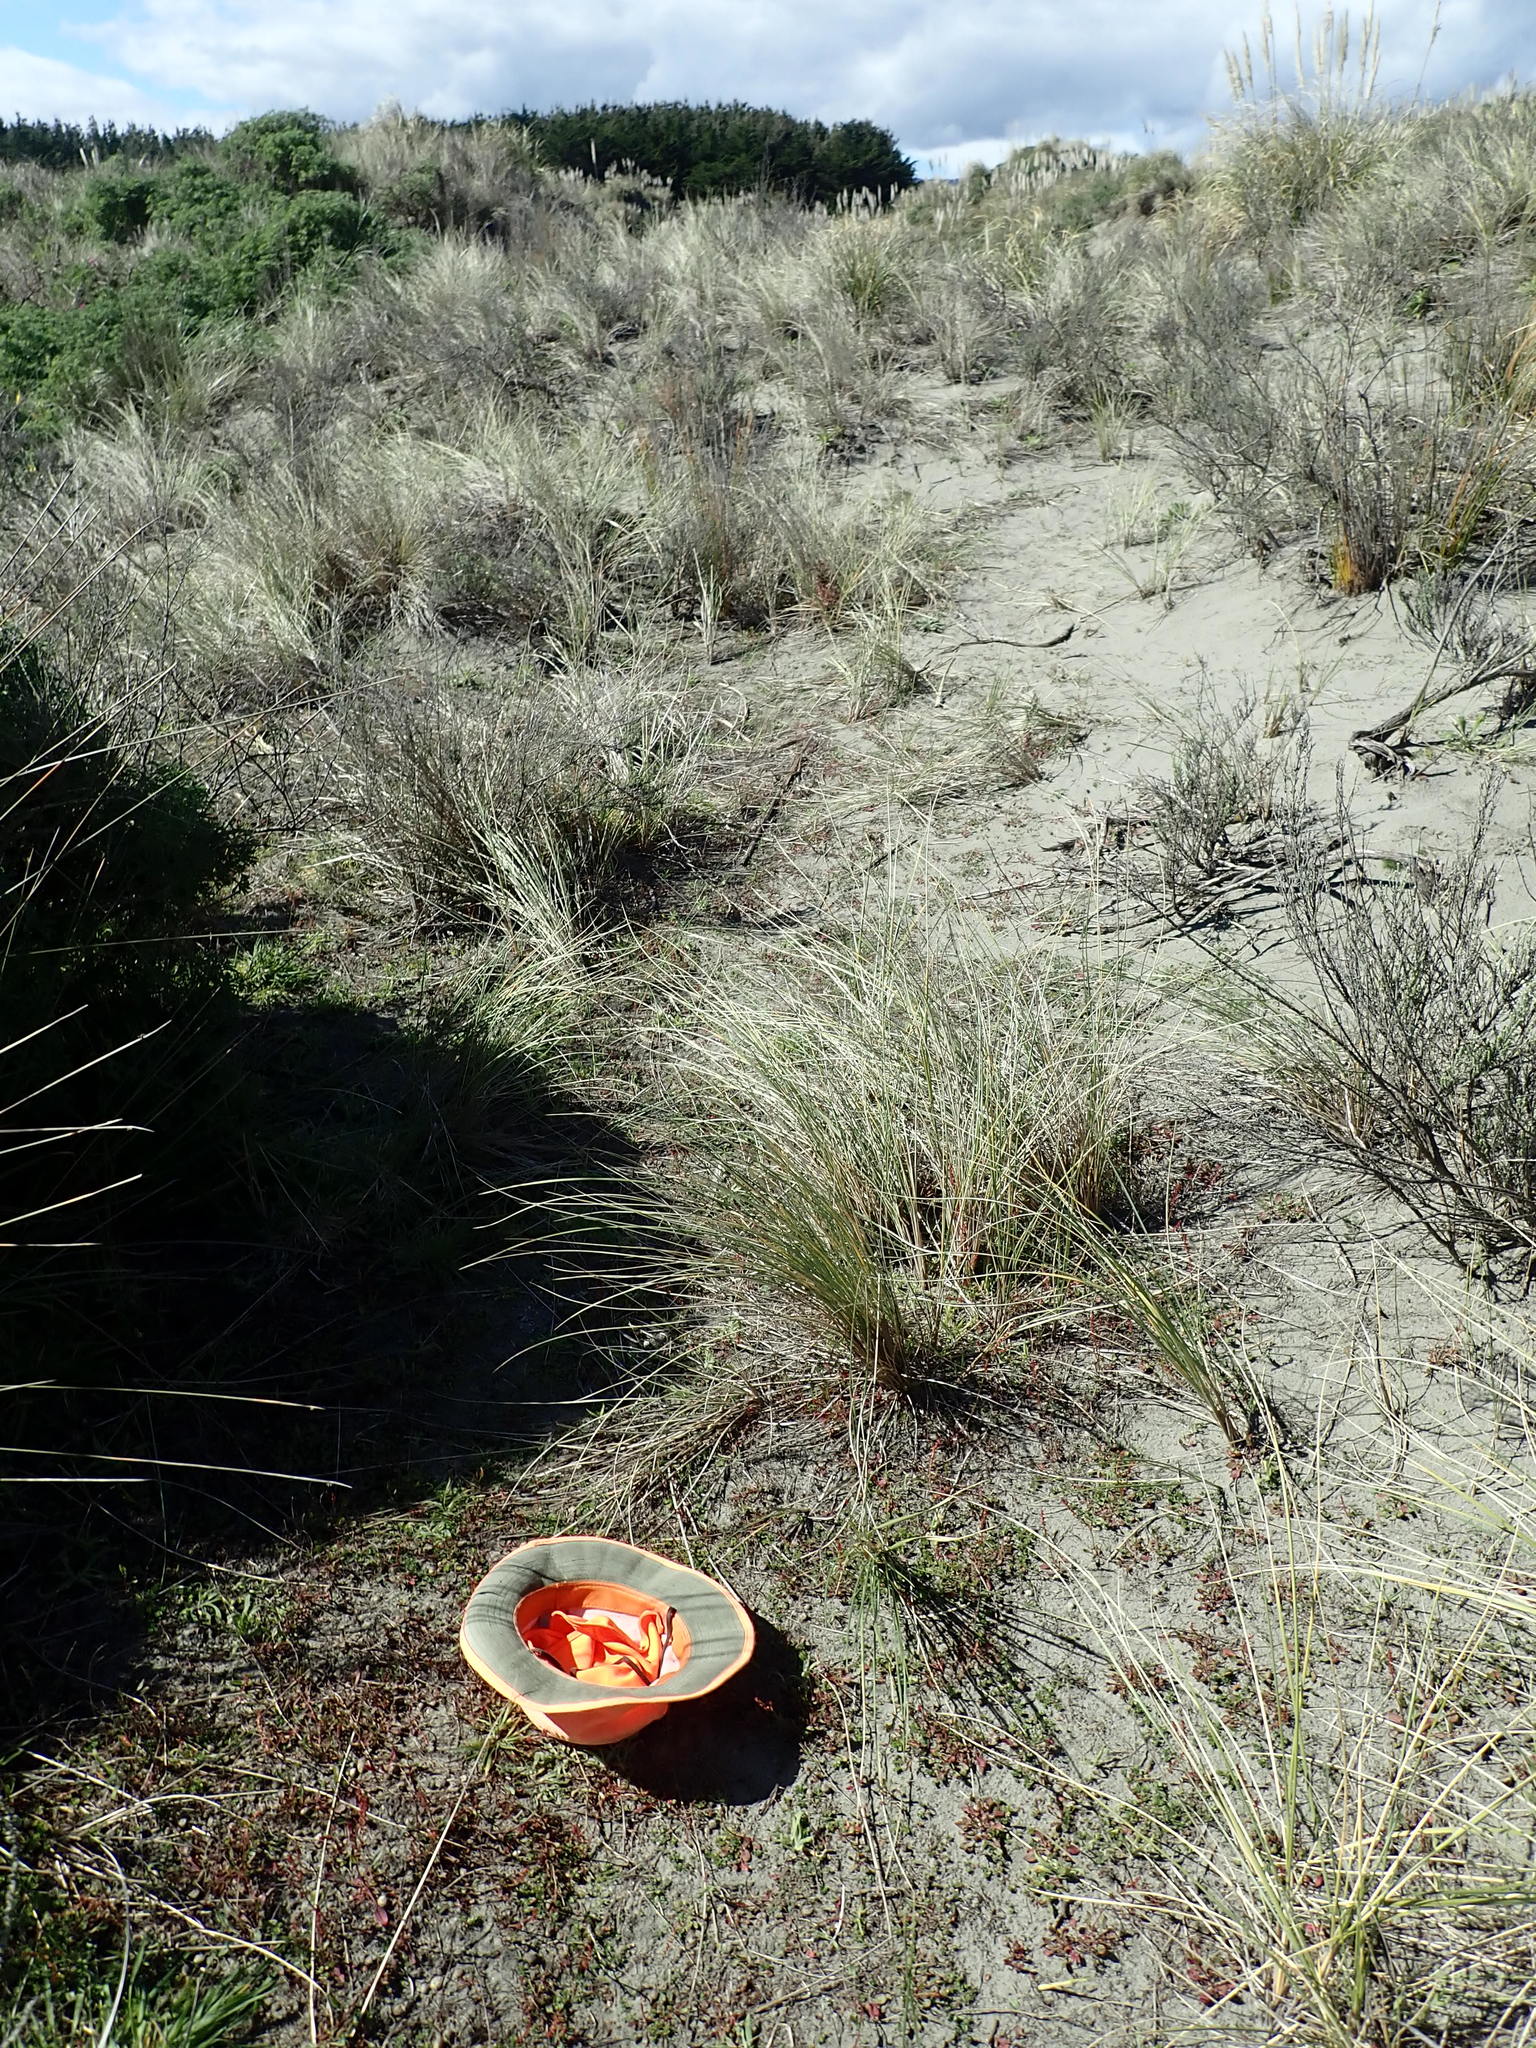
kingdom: Plantae
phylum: Tracheophyta
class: Magnoliopsida
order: Caryophyllales
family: Polygonaceae
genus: Rumex
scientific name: Rumex acetosella
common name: Common sheep sorrel
